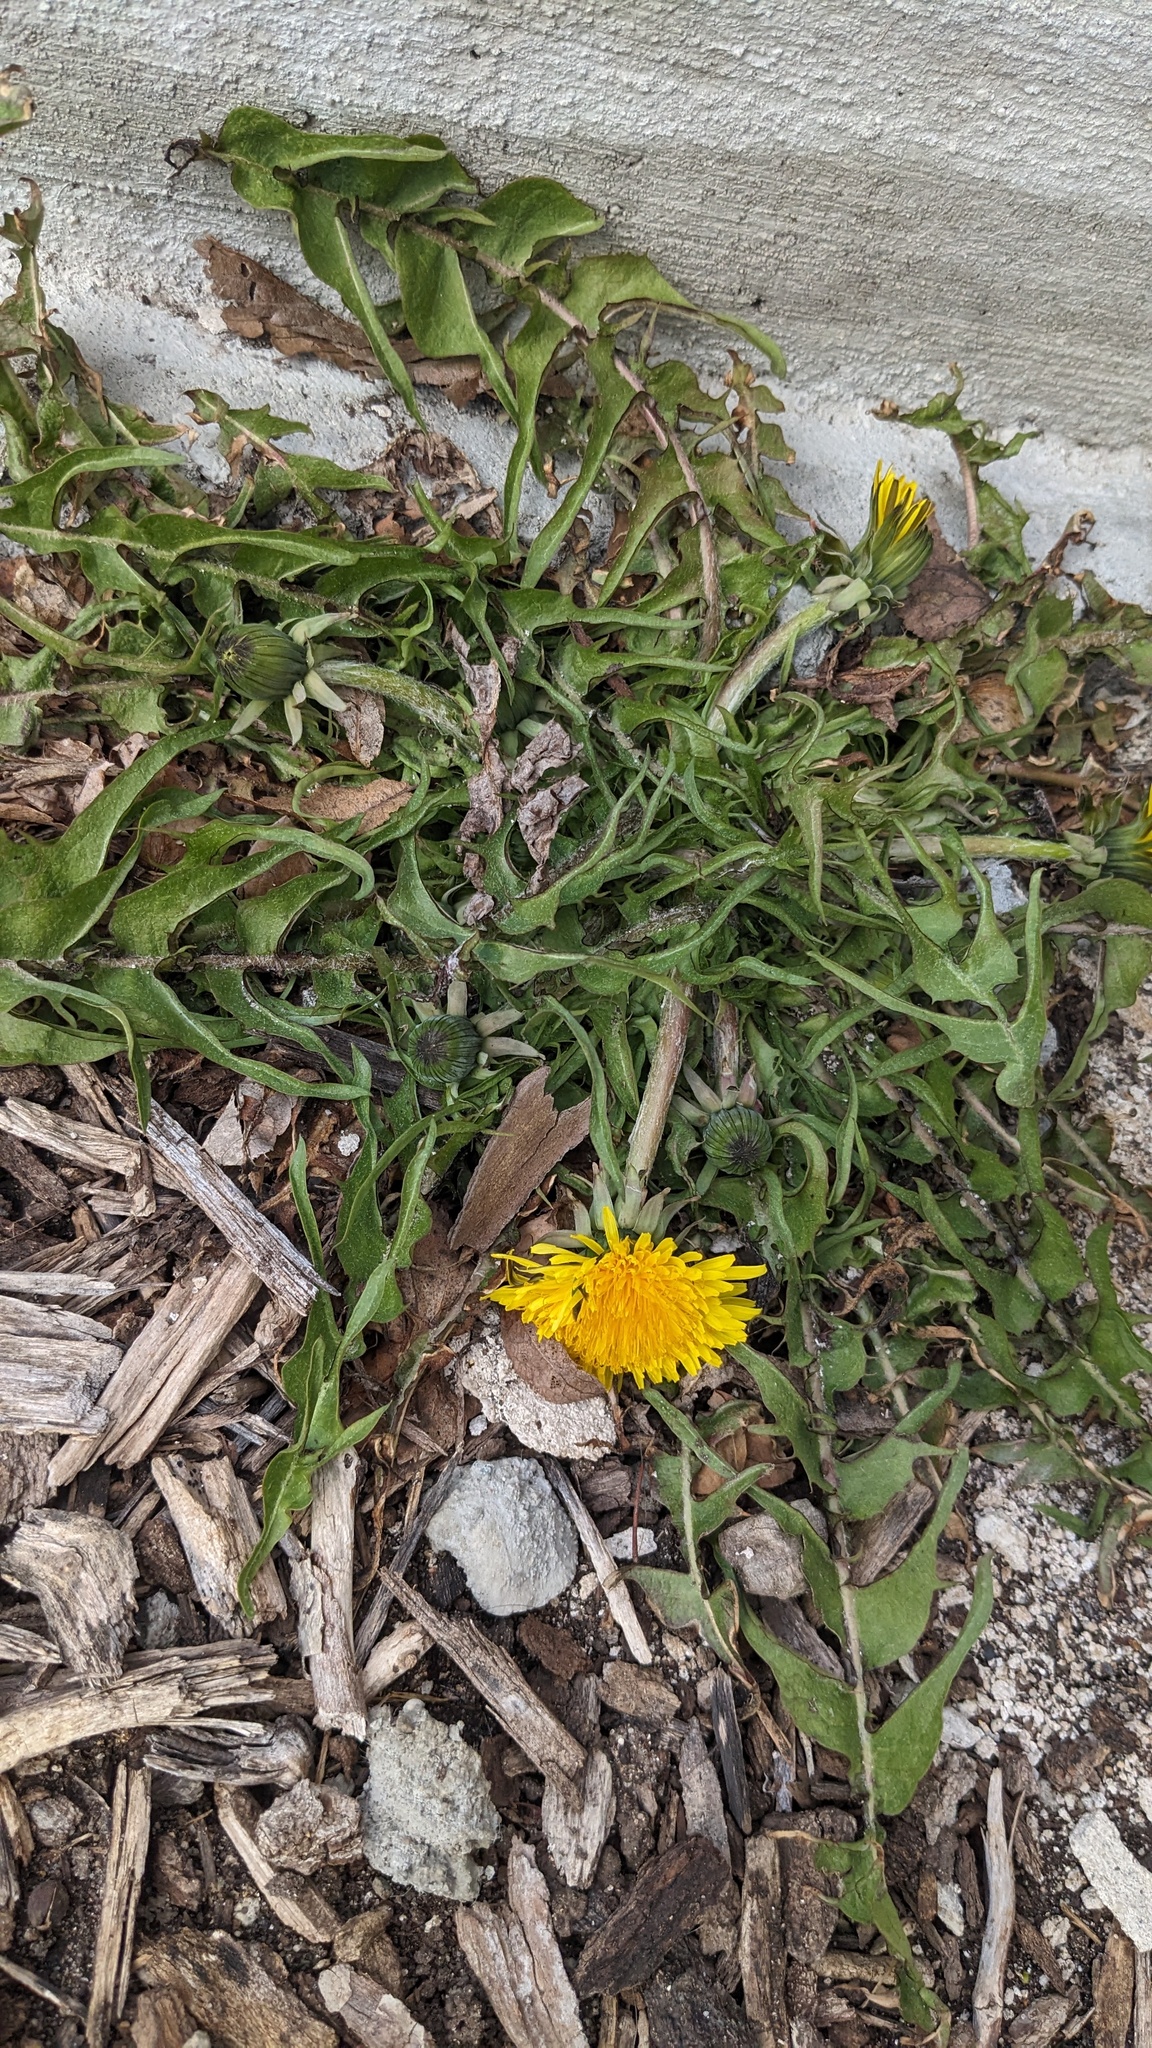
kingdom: Plantae
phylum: Tracheophyta
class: Magnoliopsida
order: Asterales
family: Asteraceae
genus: Taraxacum
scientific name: Taraxacum
